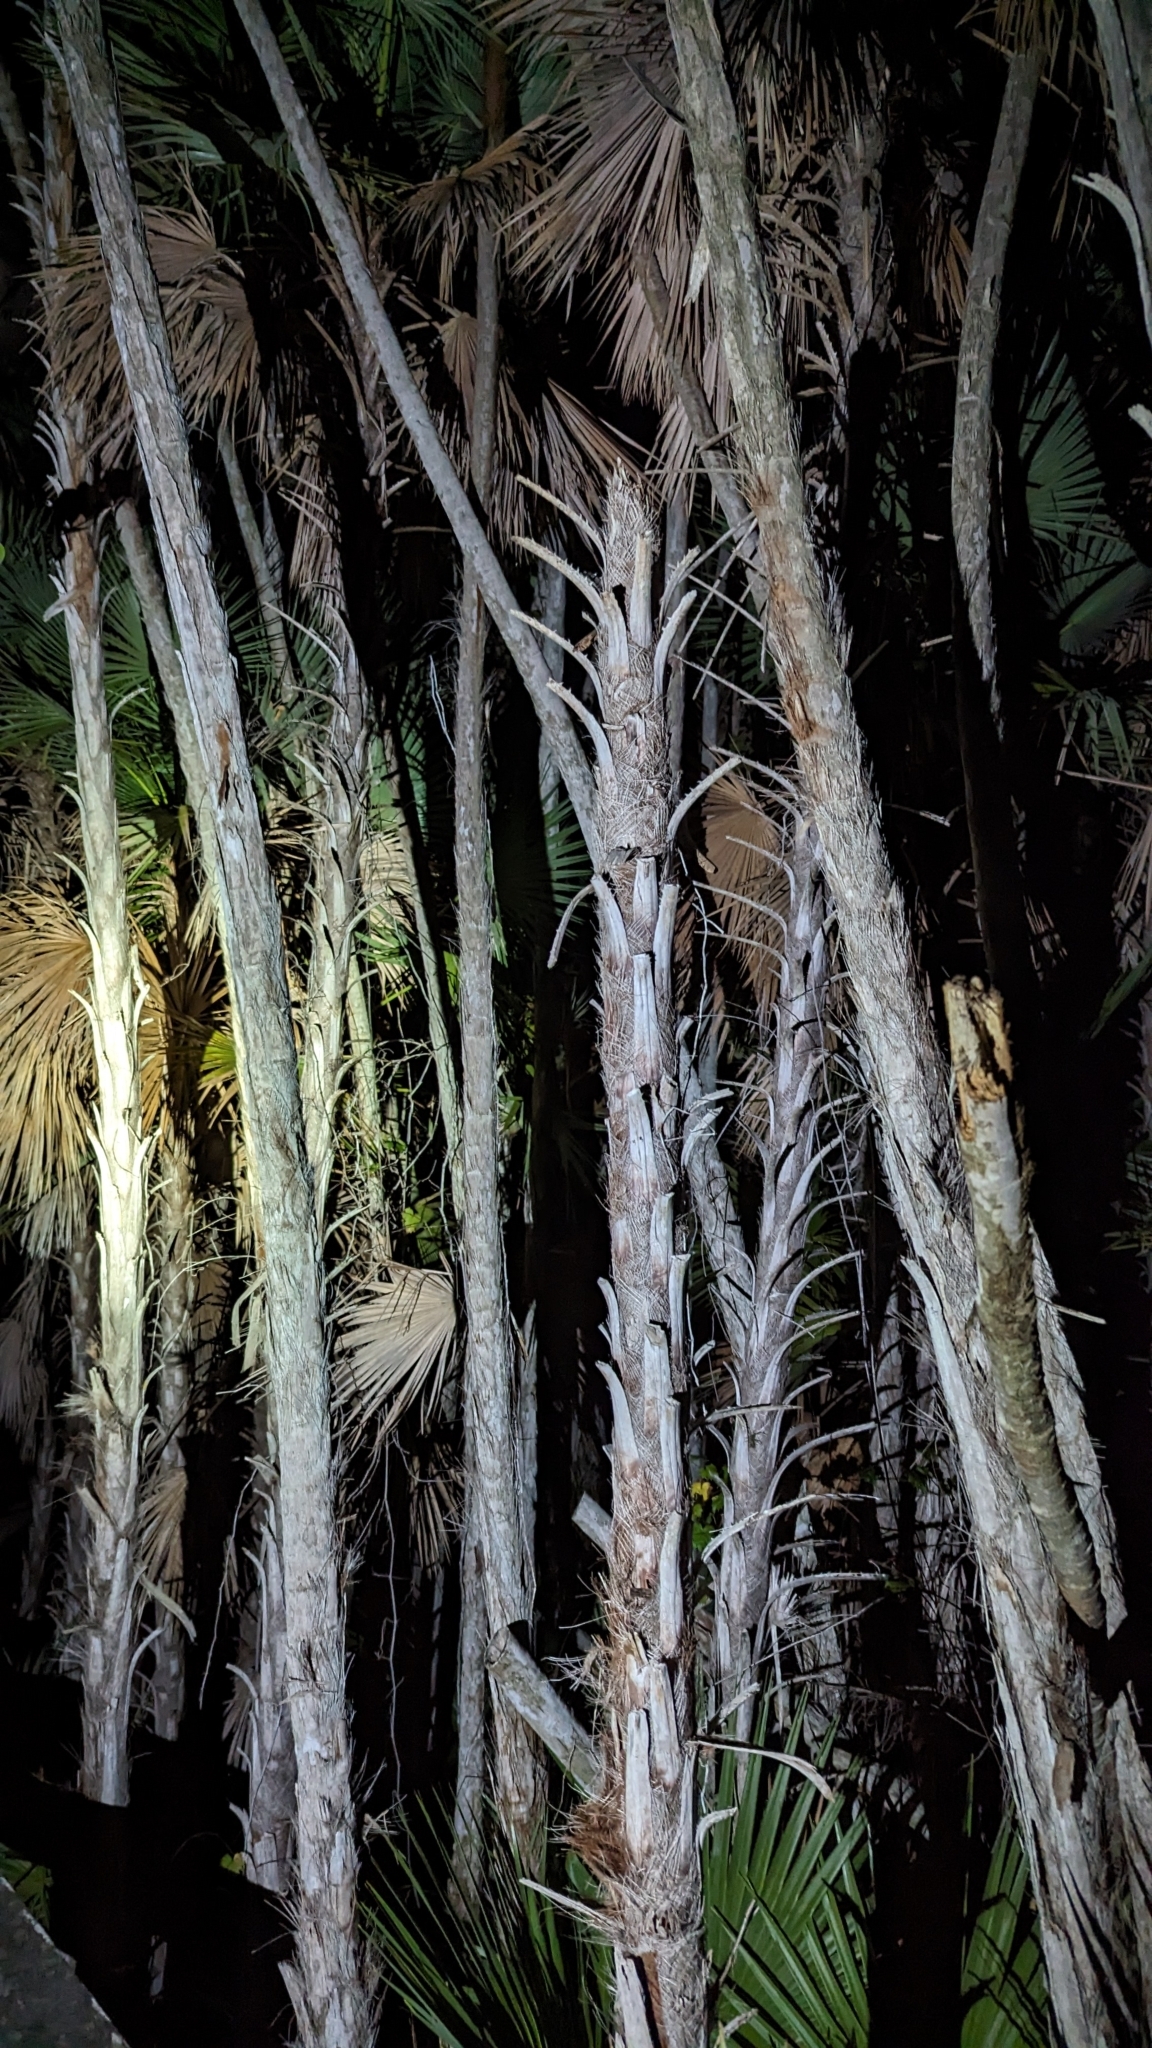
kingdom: Plantae
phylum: Tracheophyta
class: Liliopsida
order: Arecales
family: Arecaceae
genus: Acoelorraphe
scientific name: Acoelorraphe wrightii
